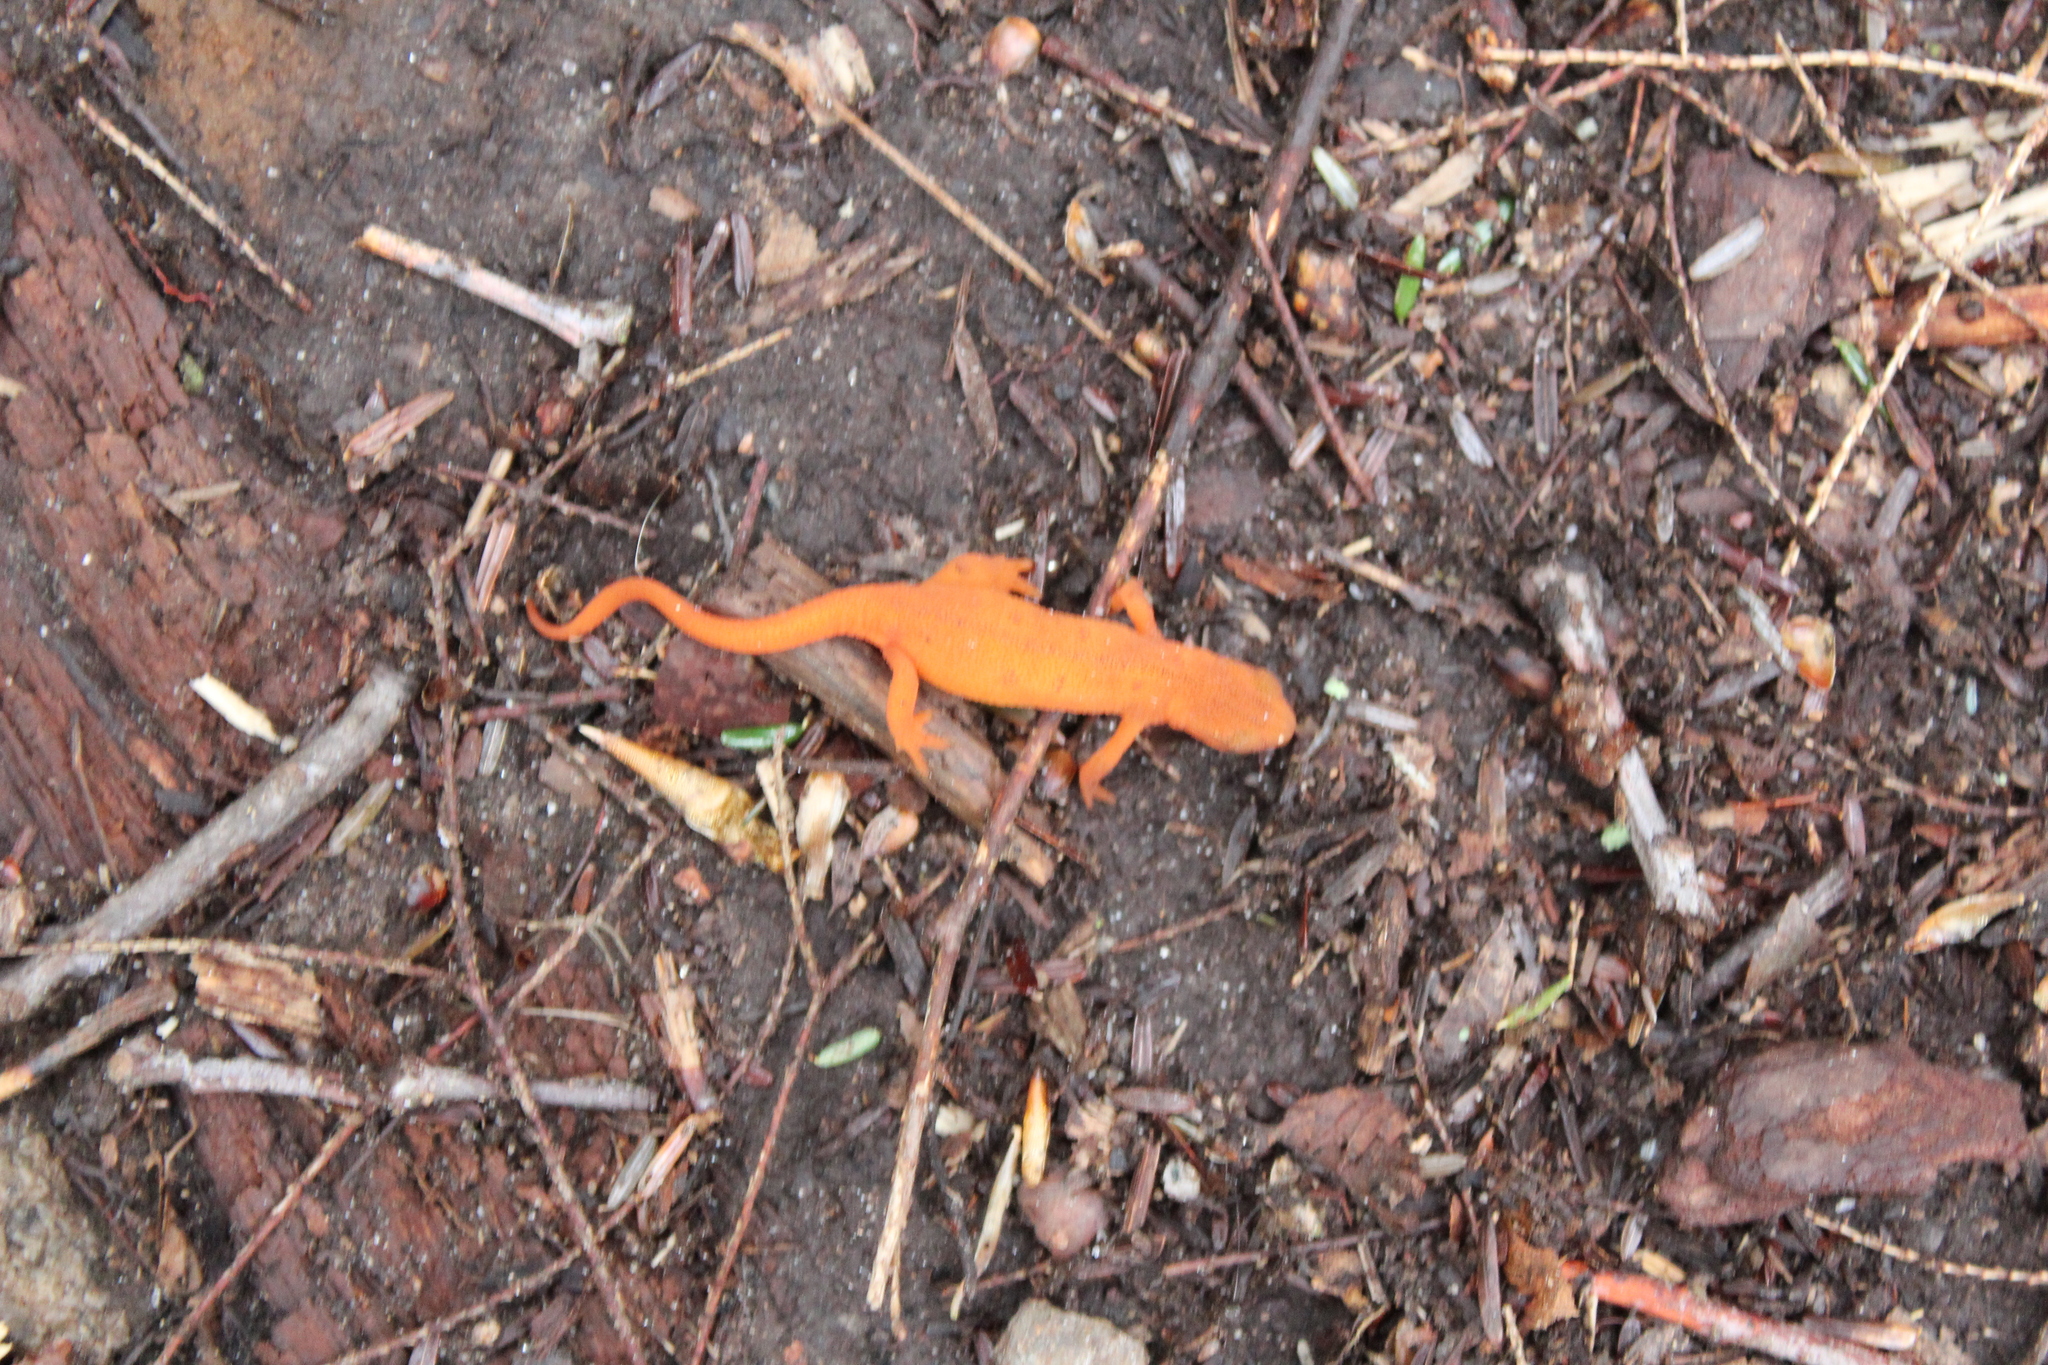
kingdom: Animalia
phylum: Chordata
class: Amphibia
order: Caudata
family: Salamandridae
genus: Notophthalmus
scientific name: Notophthalmus viridescens
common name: Eastern newt
